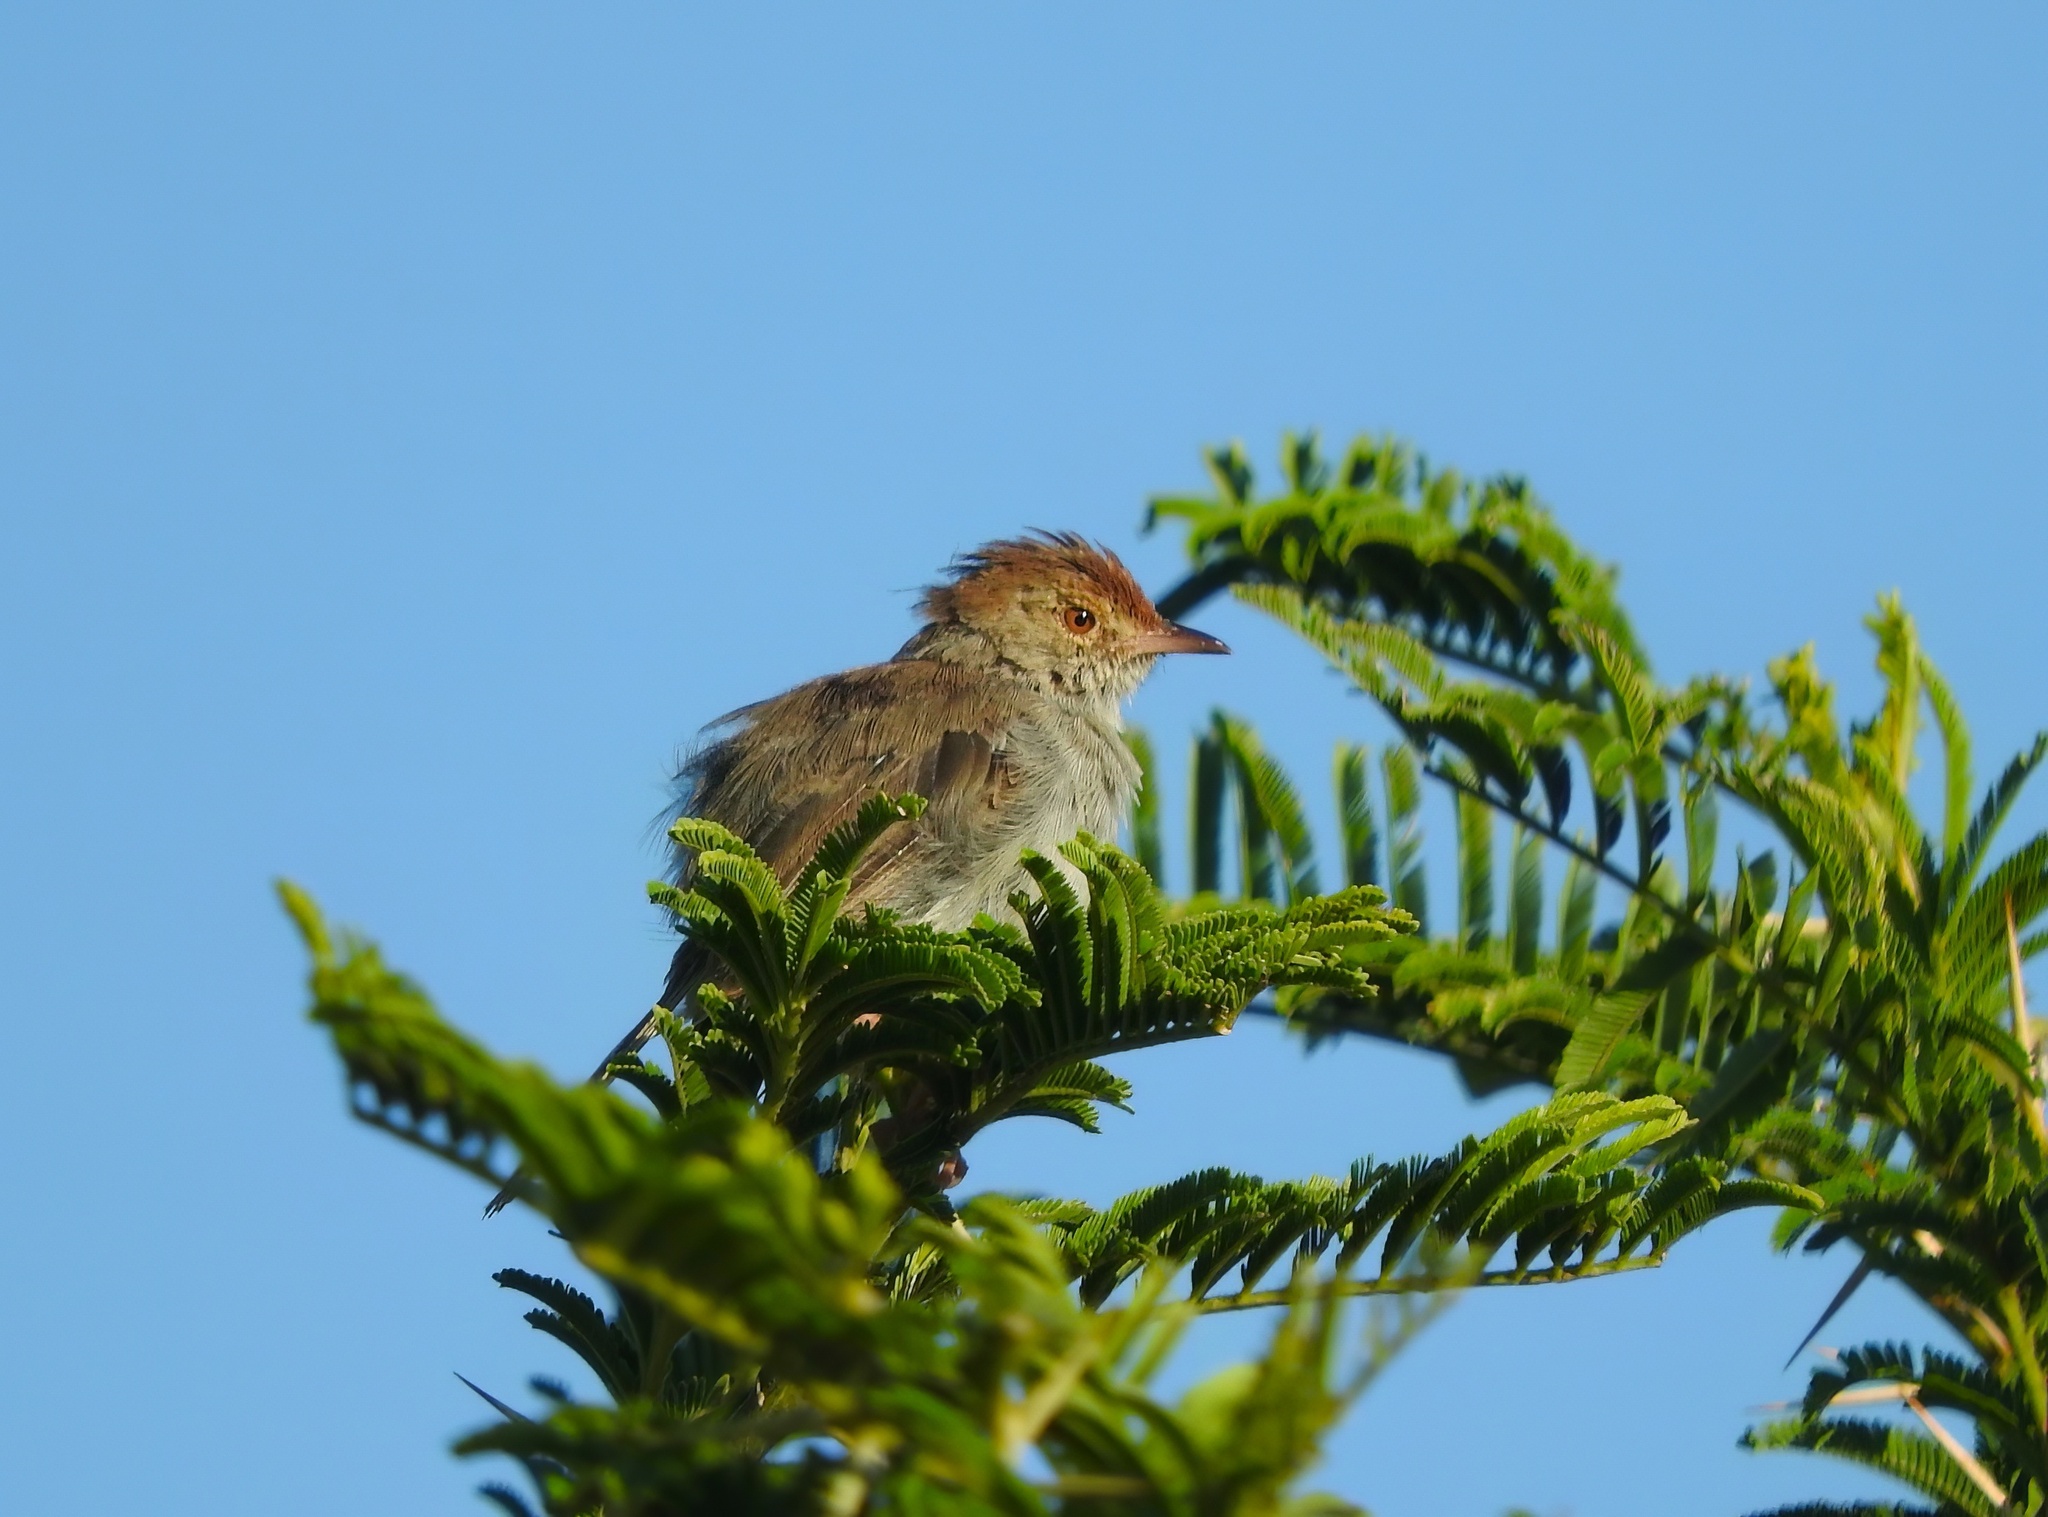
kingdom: Animalia
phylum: Chordata
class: Aves
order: Passeriformes
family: Cisticolidae
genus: Cisticola
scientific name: Cisticola fulvicapilla
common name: Neddicky
